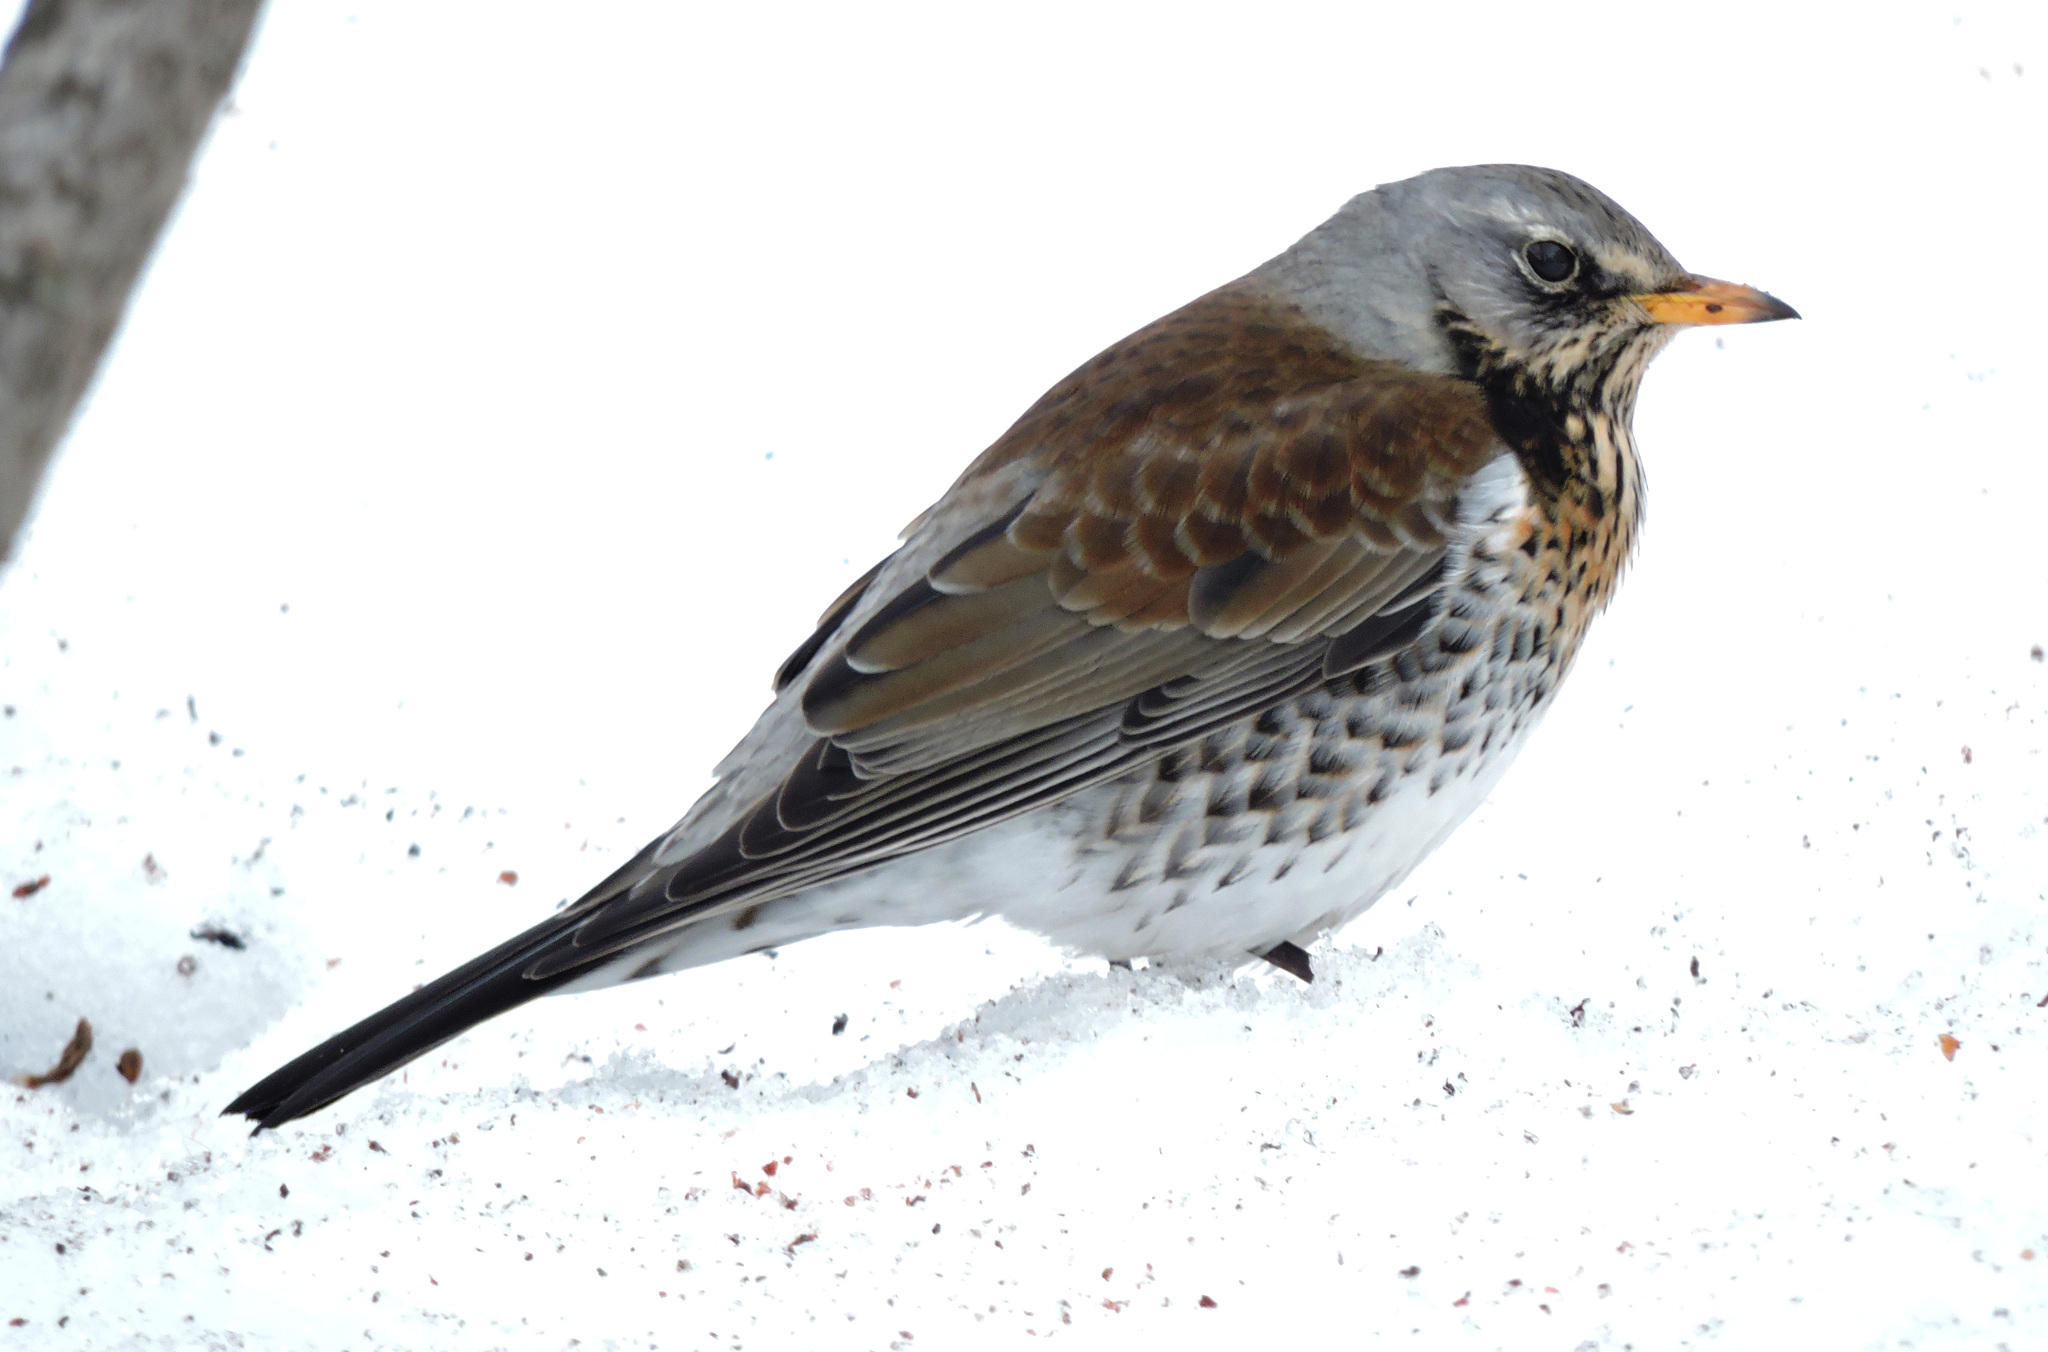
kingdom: Animalia
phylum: Chordata
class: Aves
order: Passeriformes
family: Turdidae
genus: Turdus
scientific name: Turdus pilaris
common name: Fieldfare
